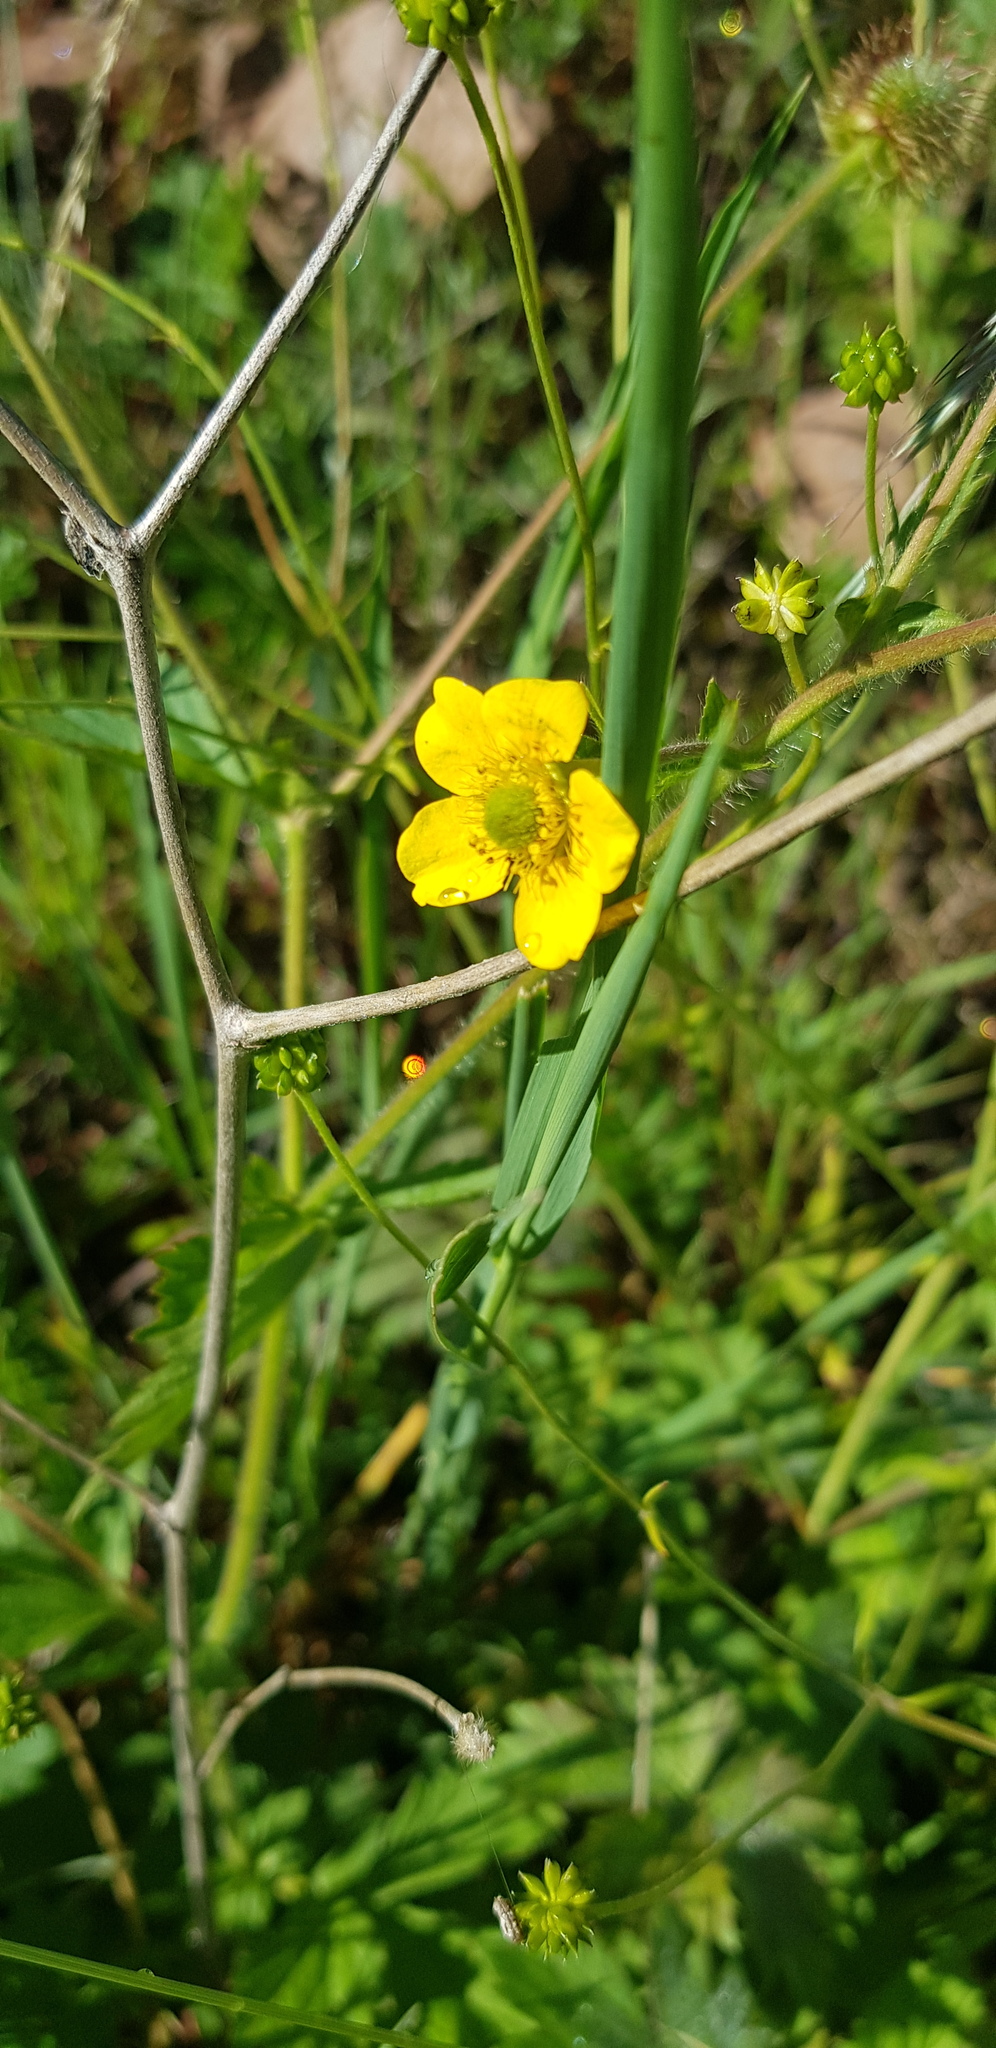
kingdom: Plantae
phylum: Tracheophyta
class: Magnoliopsida
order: Ranunculales
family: Ranunculaceae
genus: Ranunculus
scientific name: Ranunculus acris
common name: Meadow buttercup
